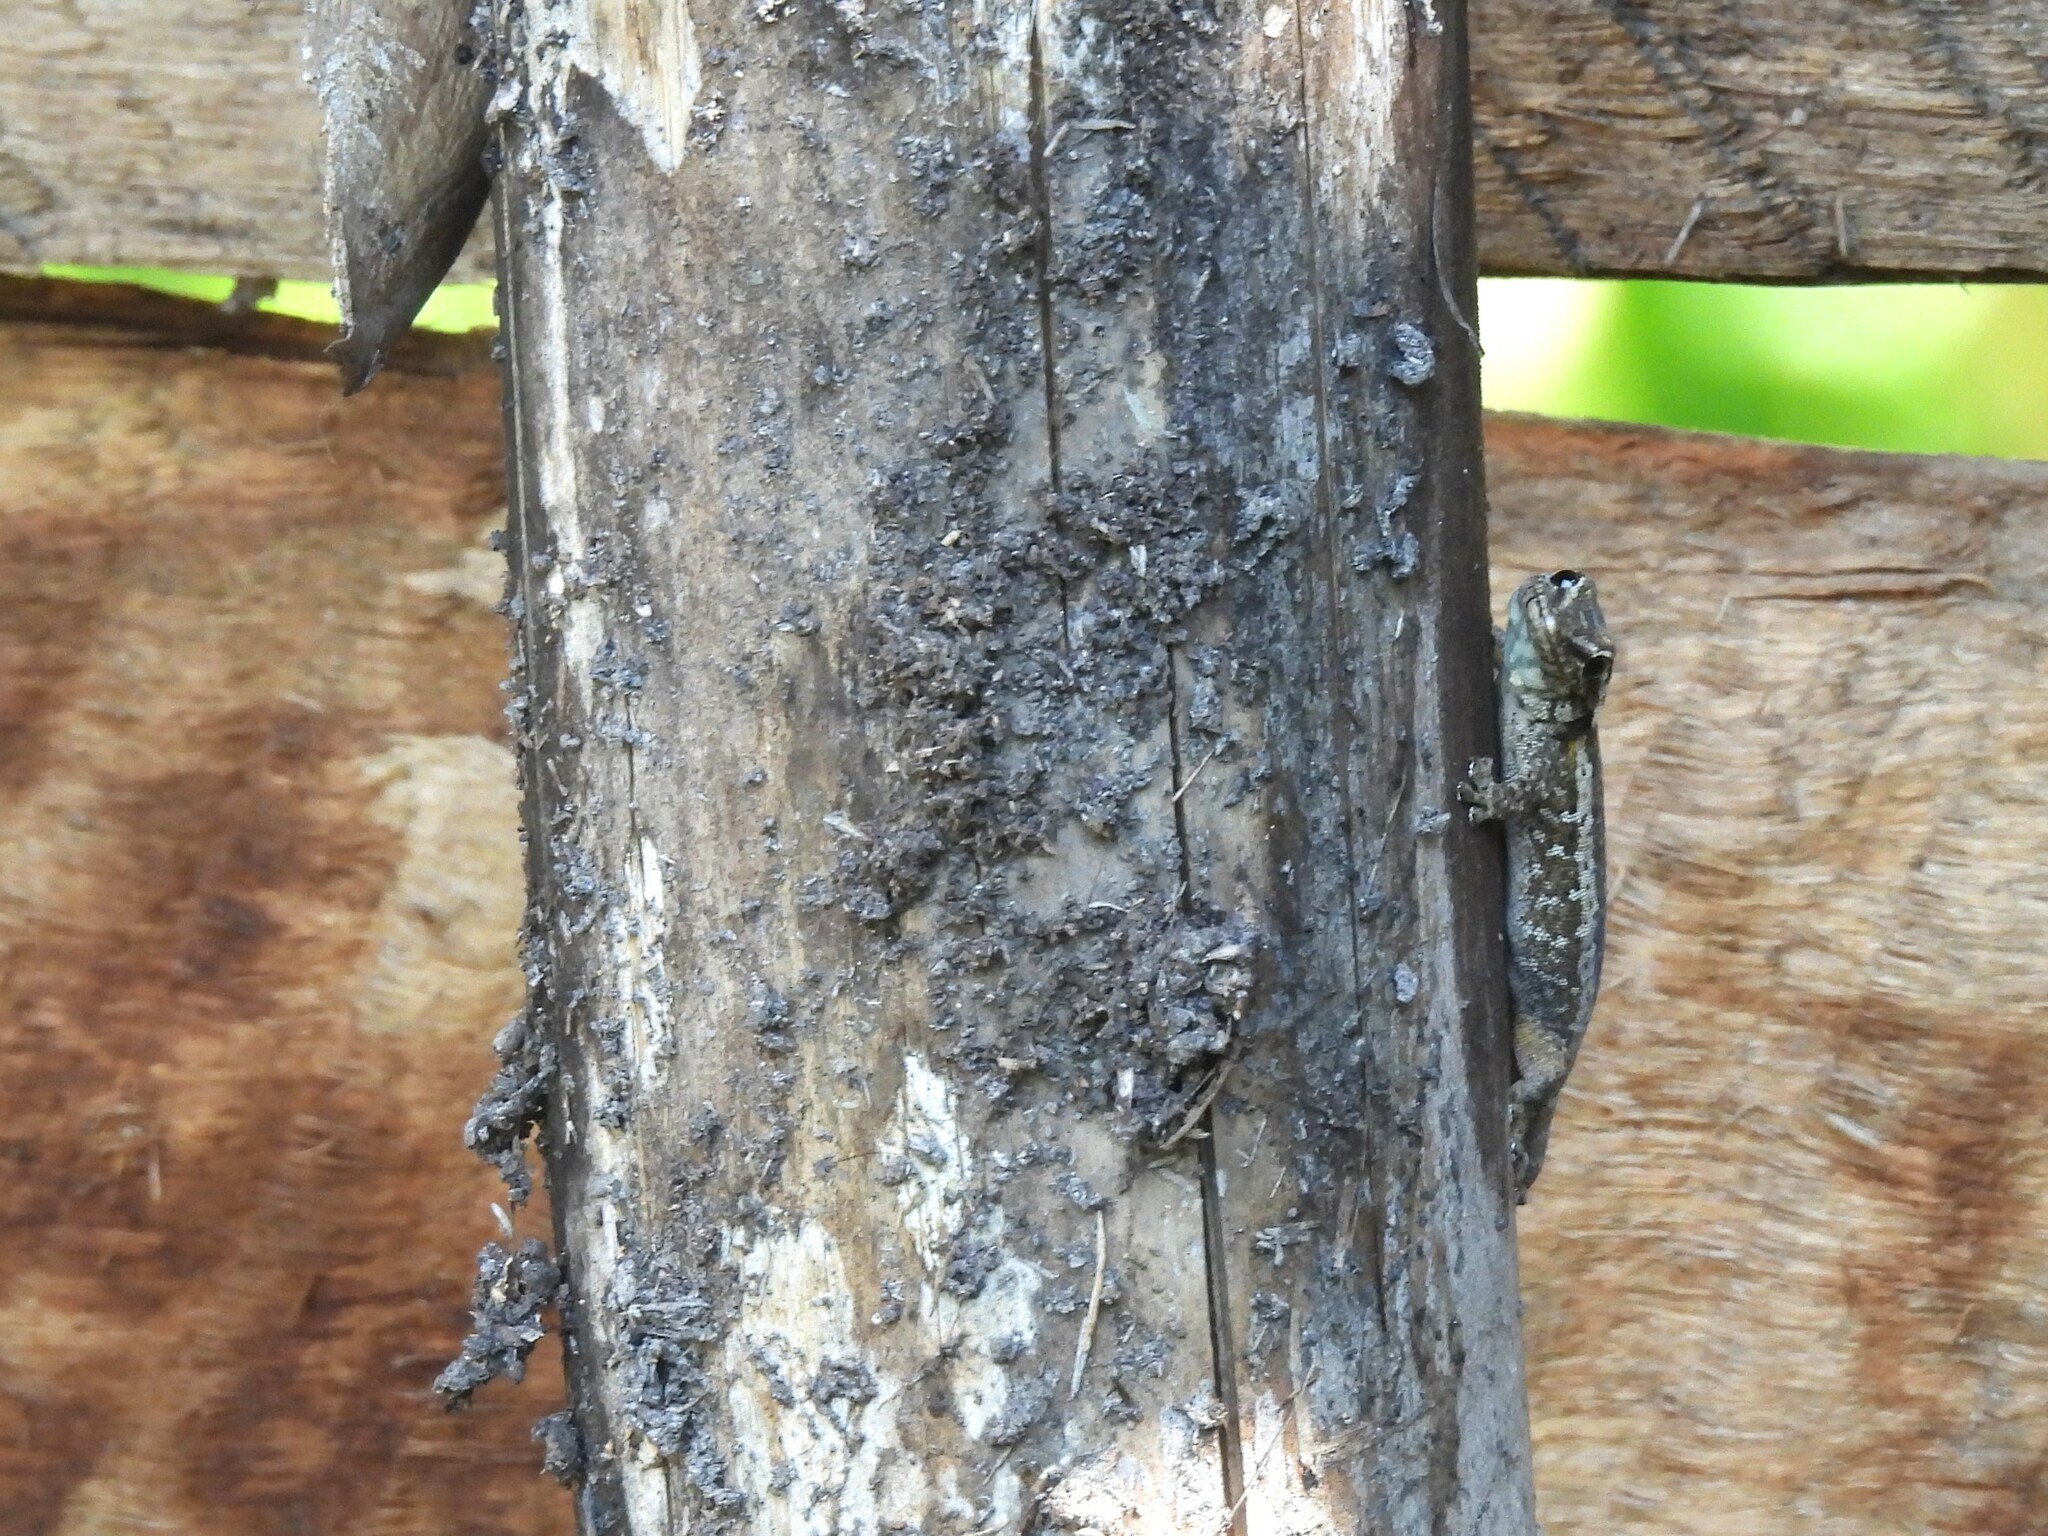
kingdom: Animalia
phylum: Chordata
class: Squamata
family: Gekkonidae
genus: Lygodactylus
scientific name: Lygodactylus angularis
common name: Angulate dwarf gecko
